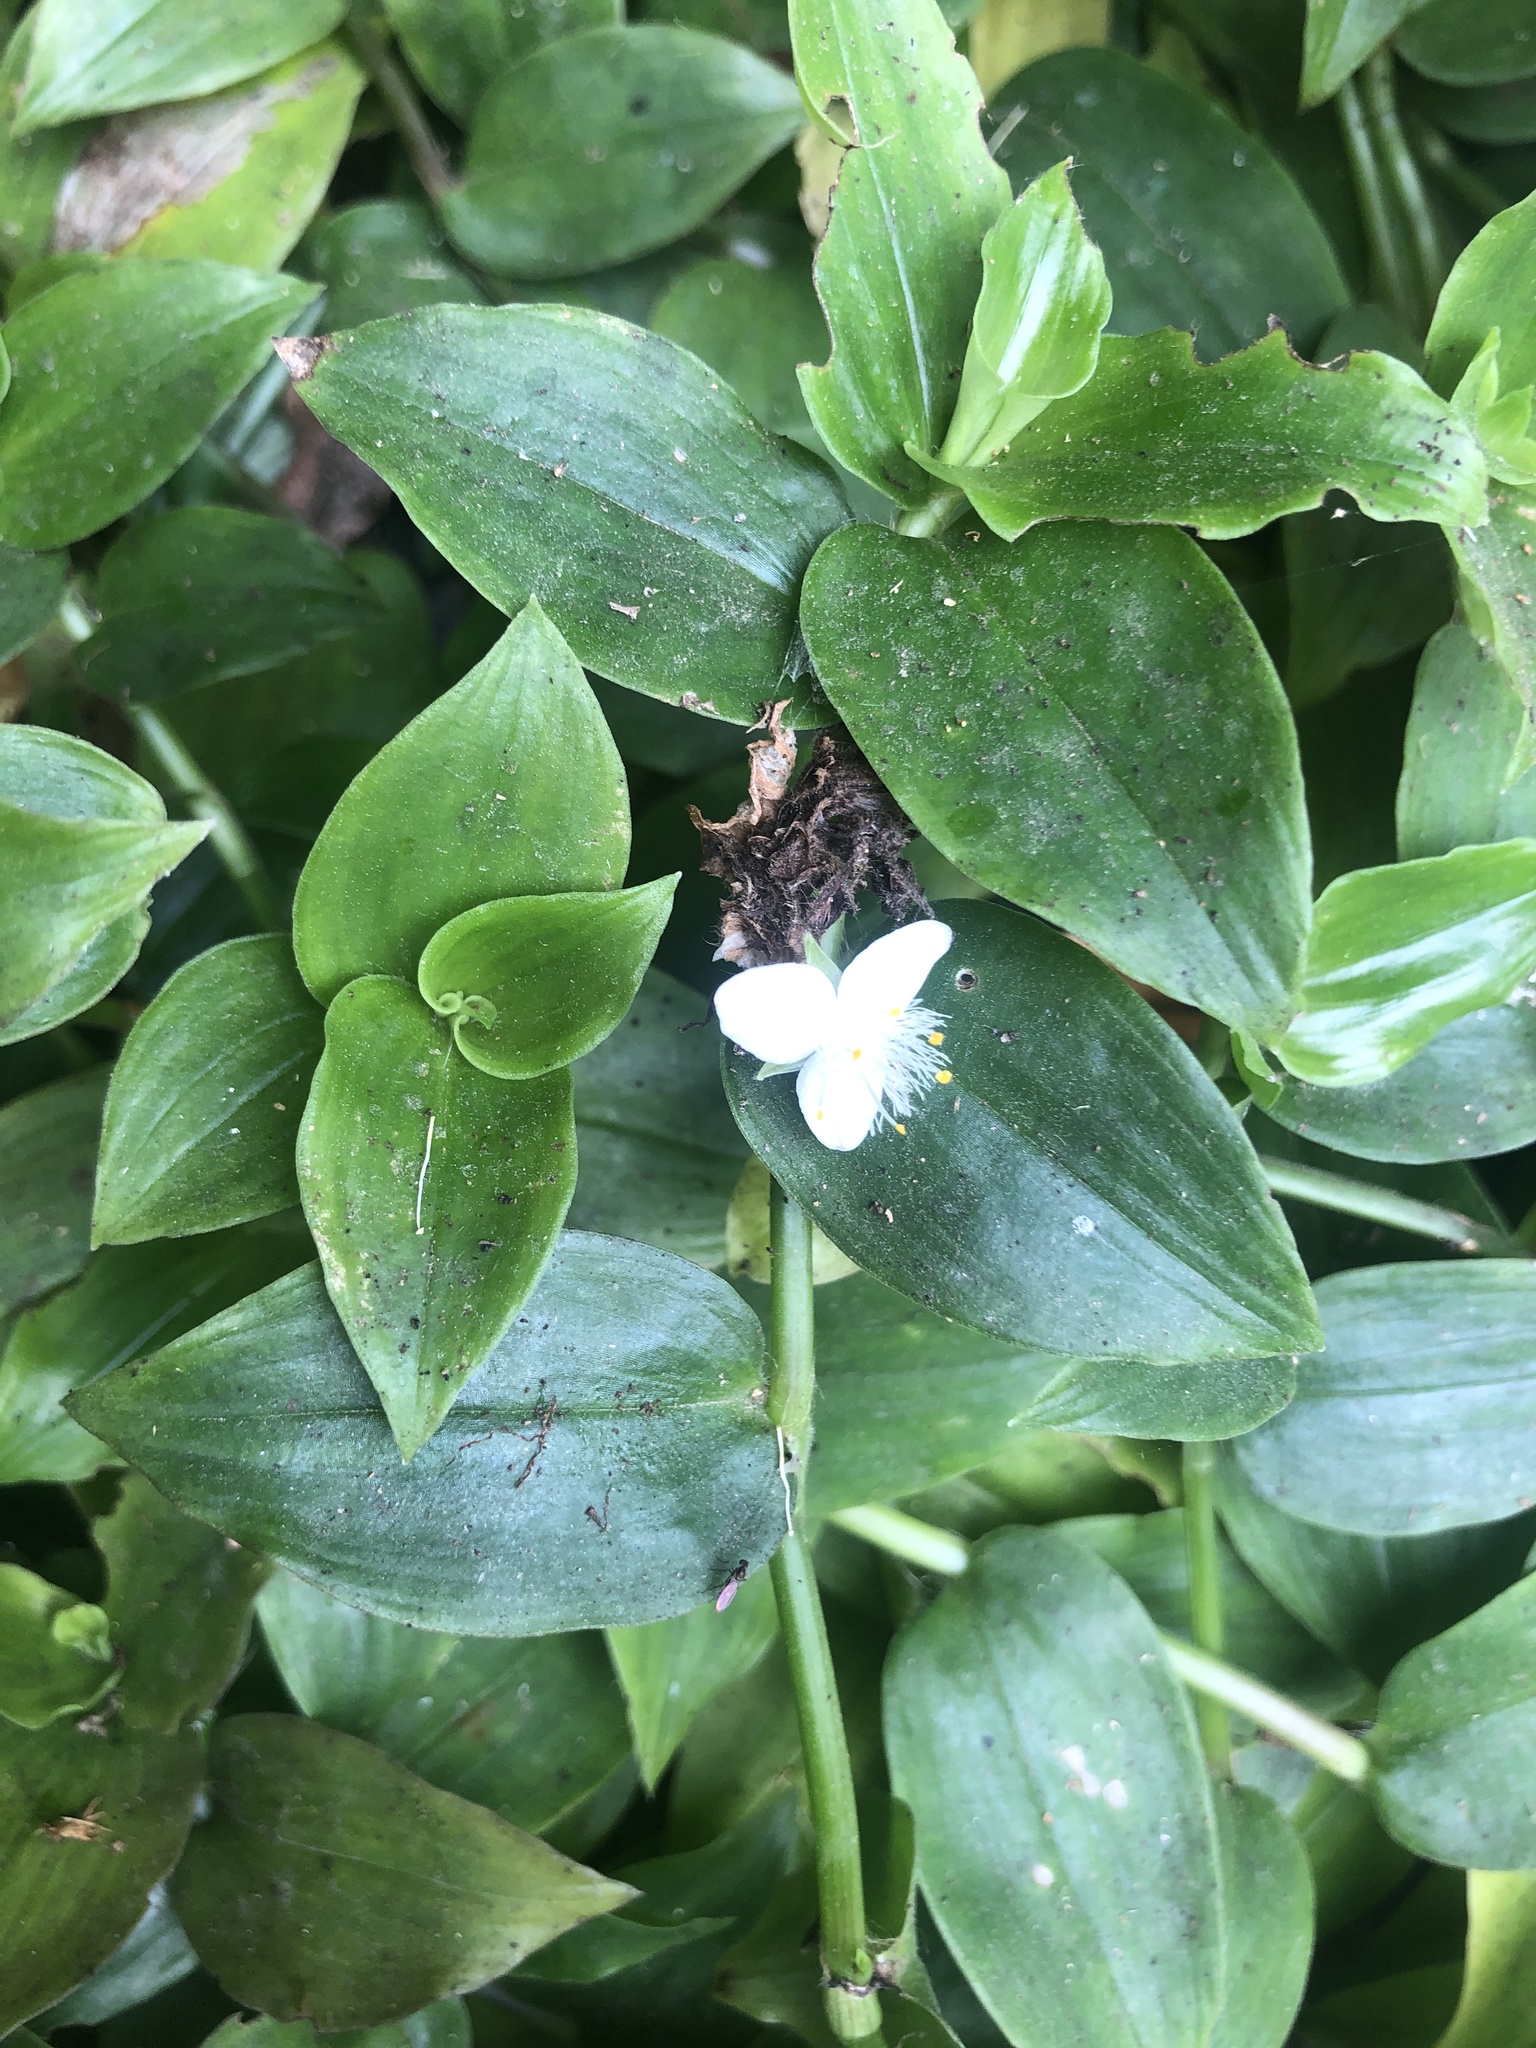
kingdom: Plantae
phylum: Tracheophyta
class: Liliopsida
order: Commelinales
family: Commelinaceae
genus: Tradescantia
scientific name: Tradescantia fluminensis
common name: Wandering-jew
